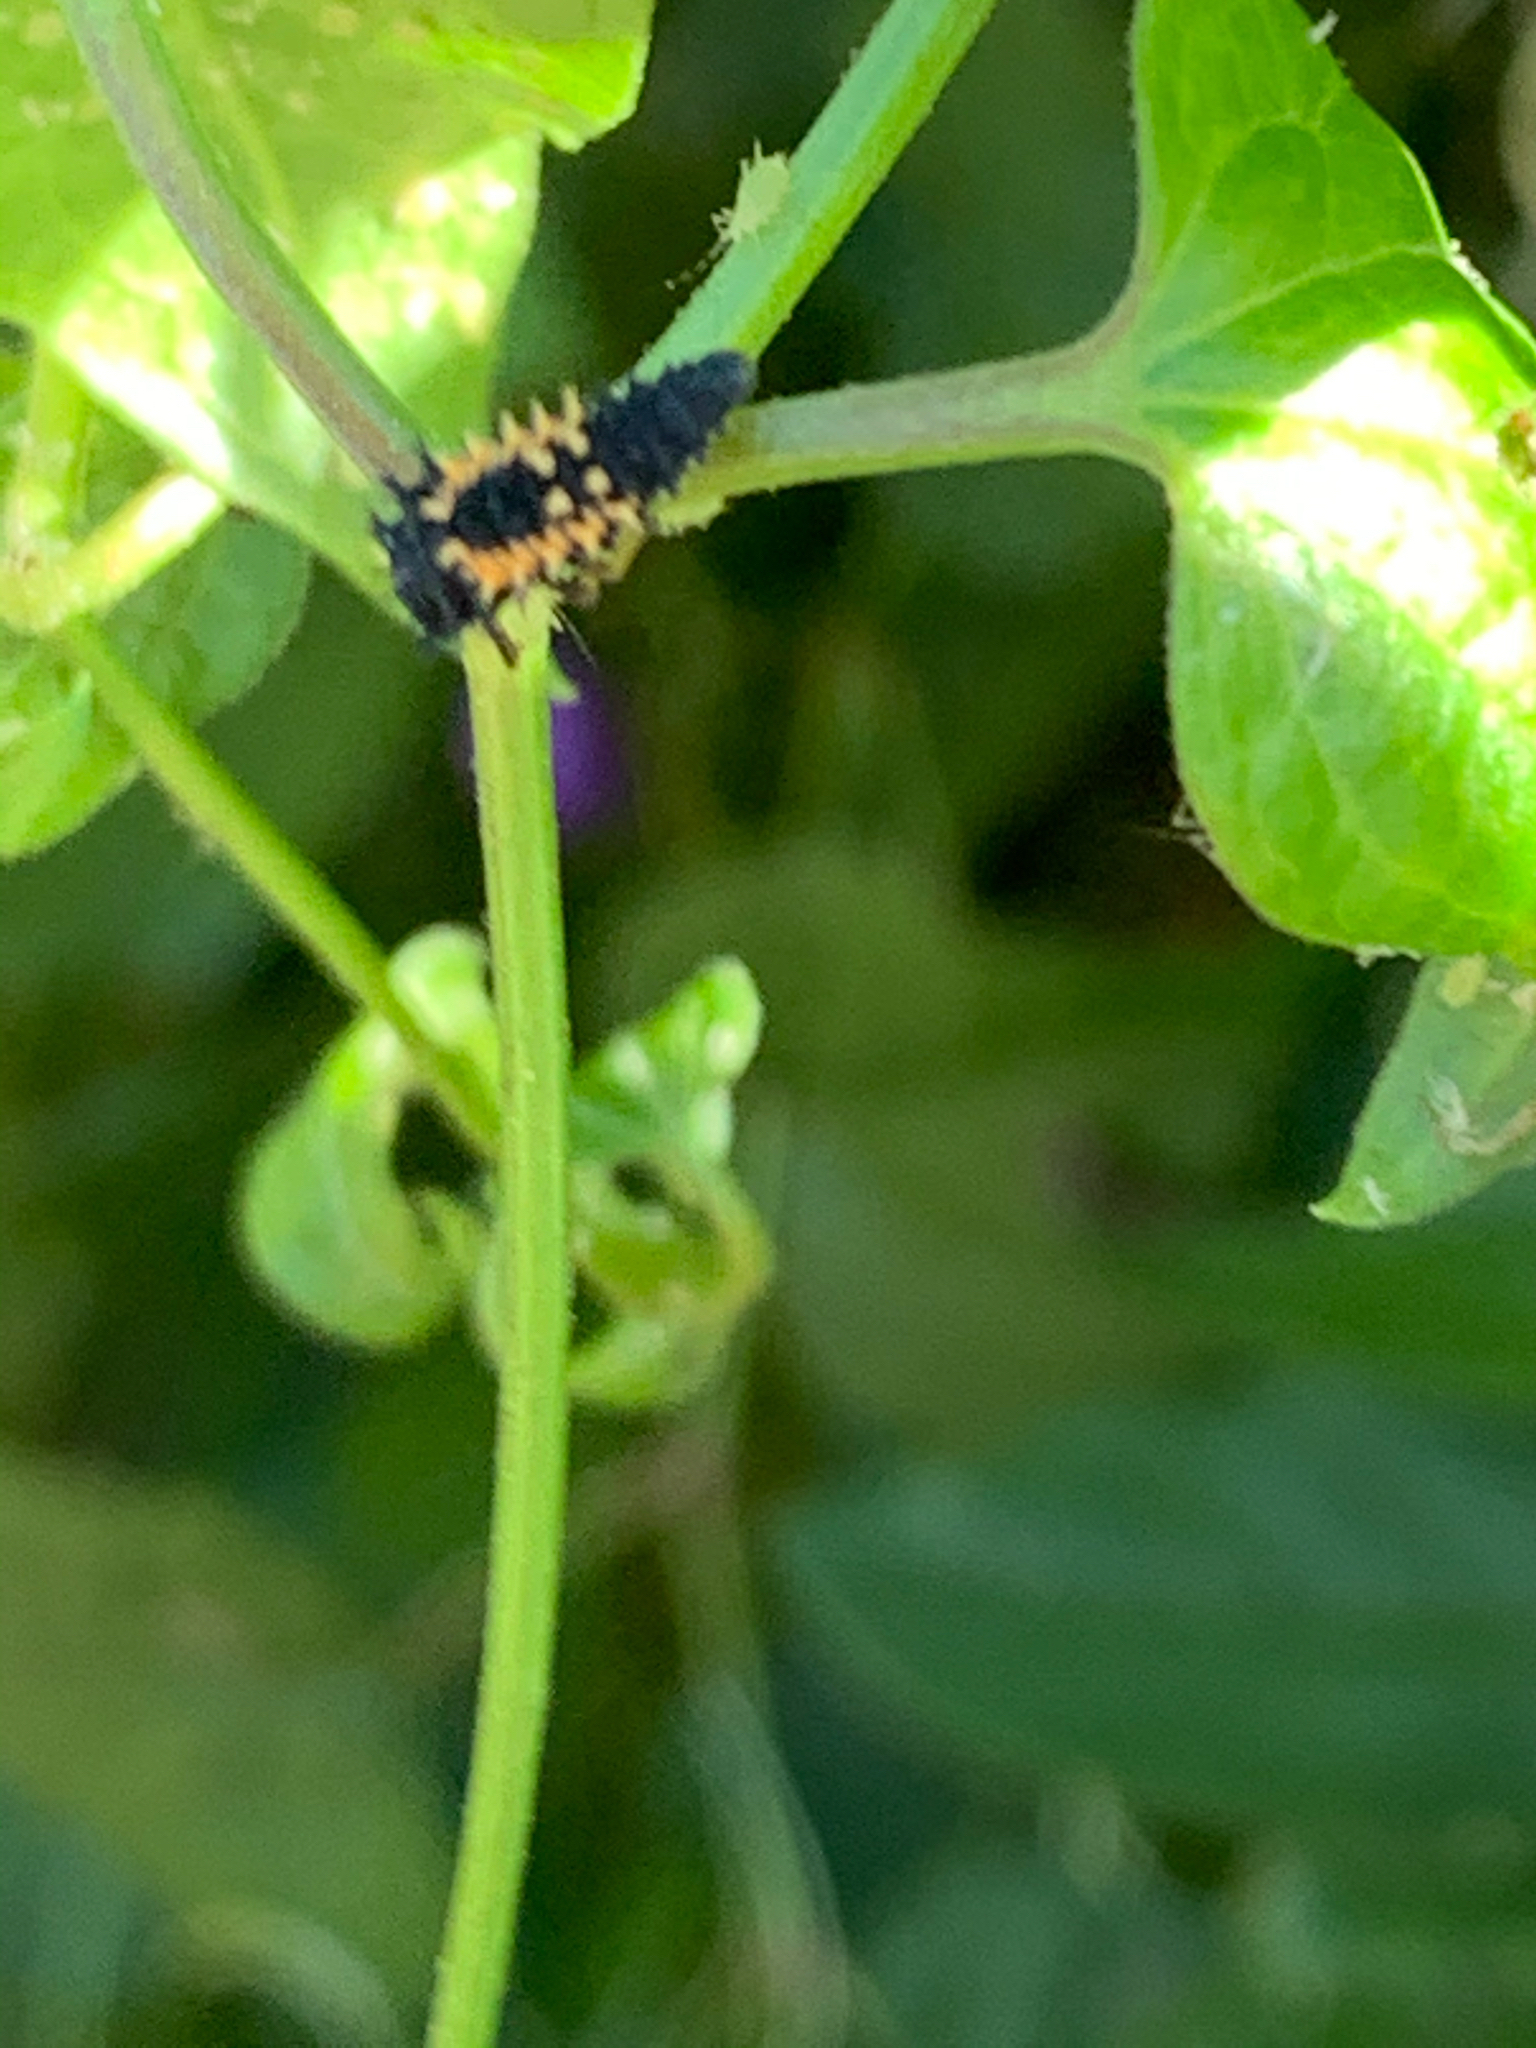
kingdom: Animalia
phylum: Arthropoda
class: Insecta
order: Coleoptera
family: Coccinellidae
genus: Harmonia
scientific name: Harmonia axyridis
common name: Harlequin ladybird
